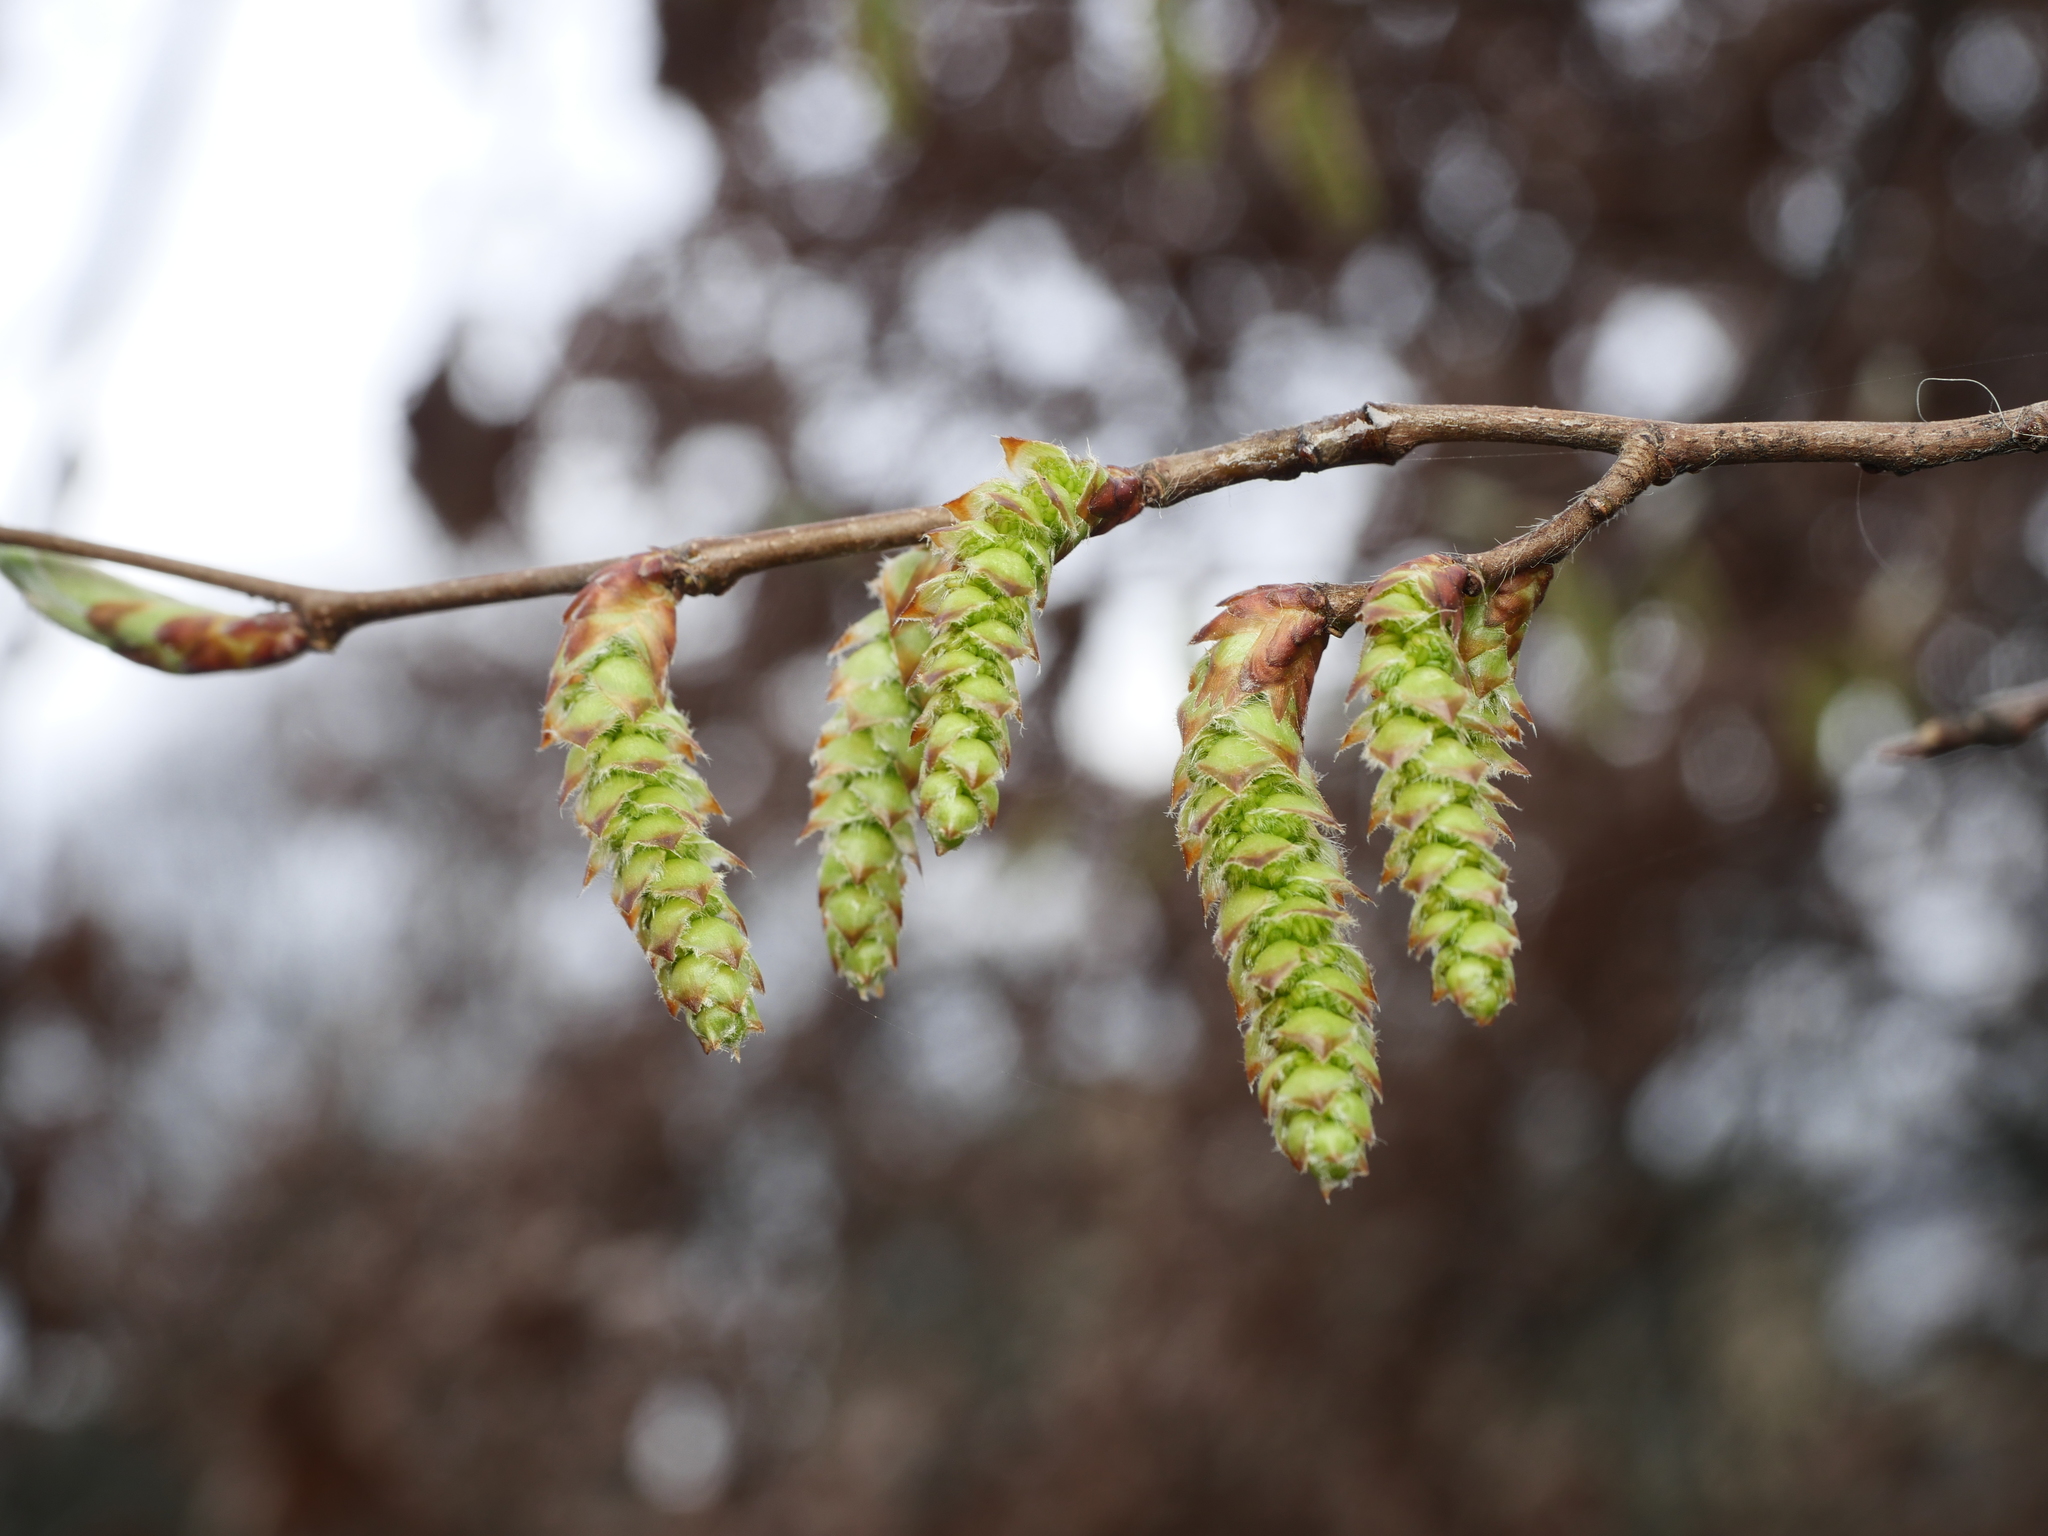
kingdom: Plantae
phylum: Tracheophyta
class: Magnoliopsida
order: Fagales
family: Betulaceae
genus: Carpinus
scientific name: Carpinus betulus
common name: Hornbeam
